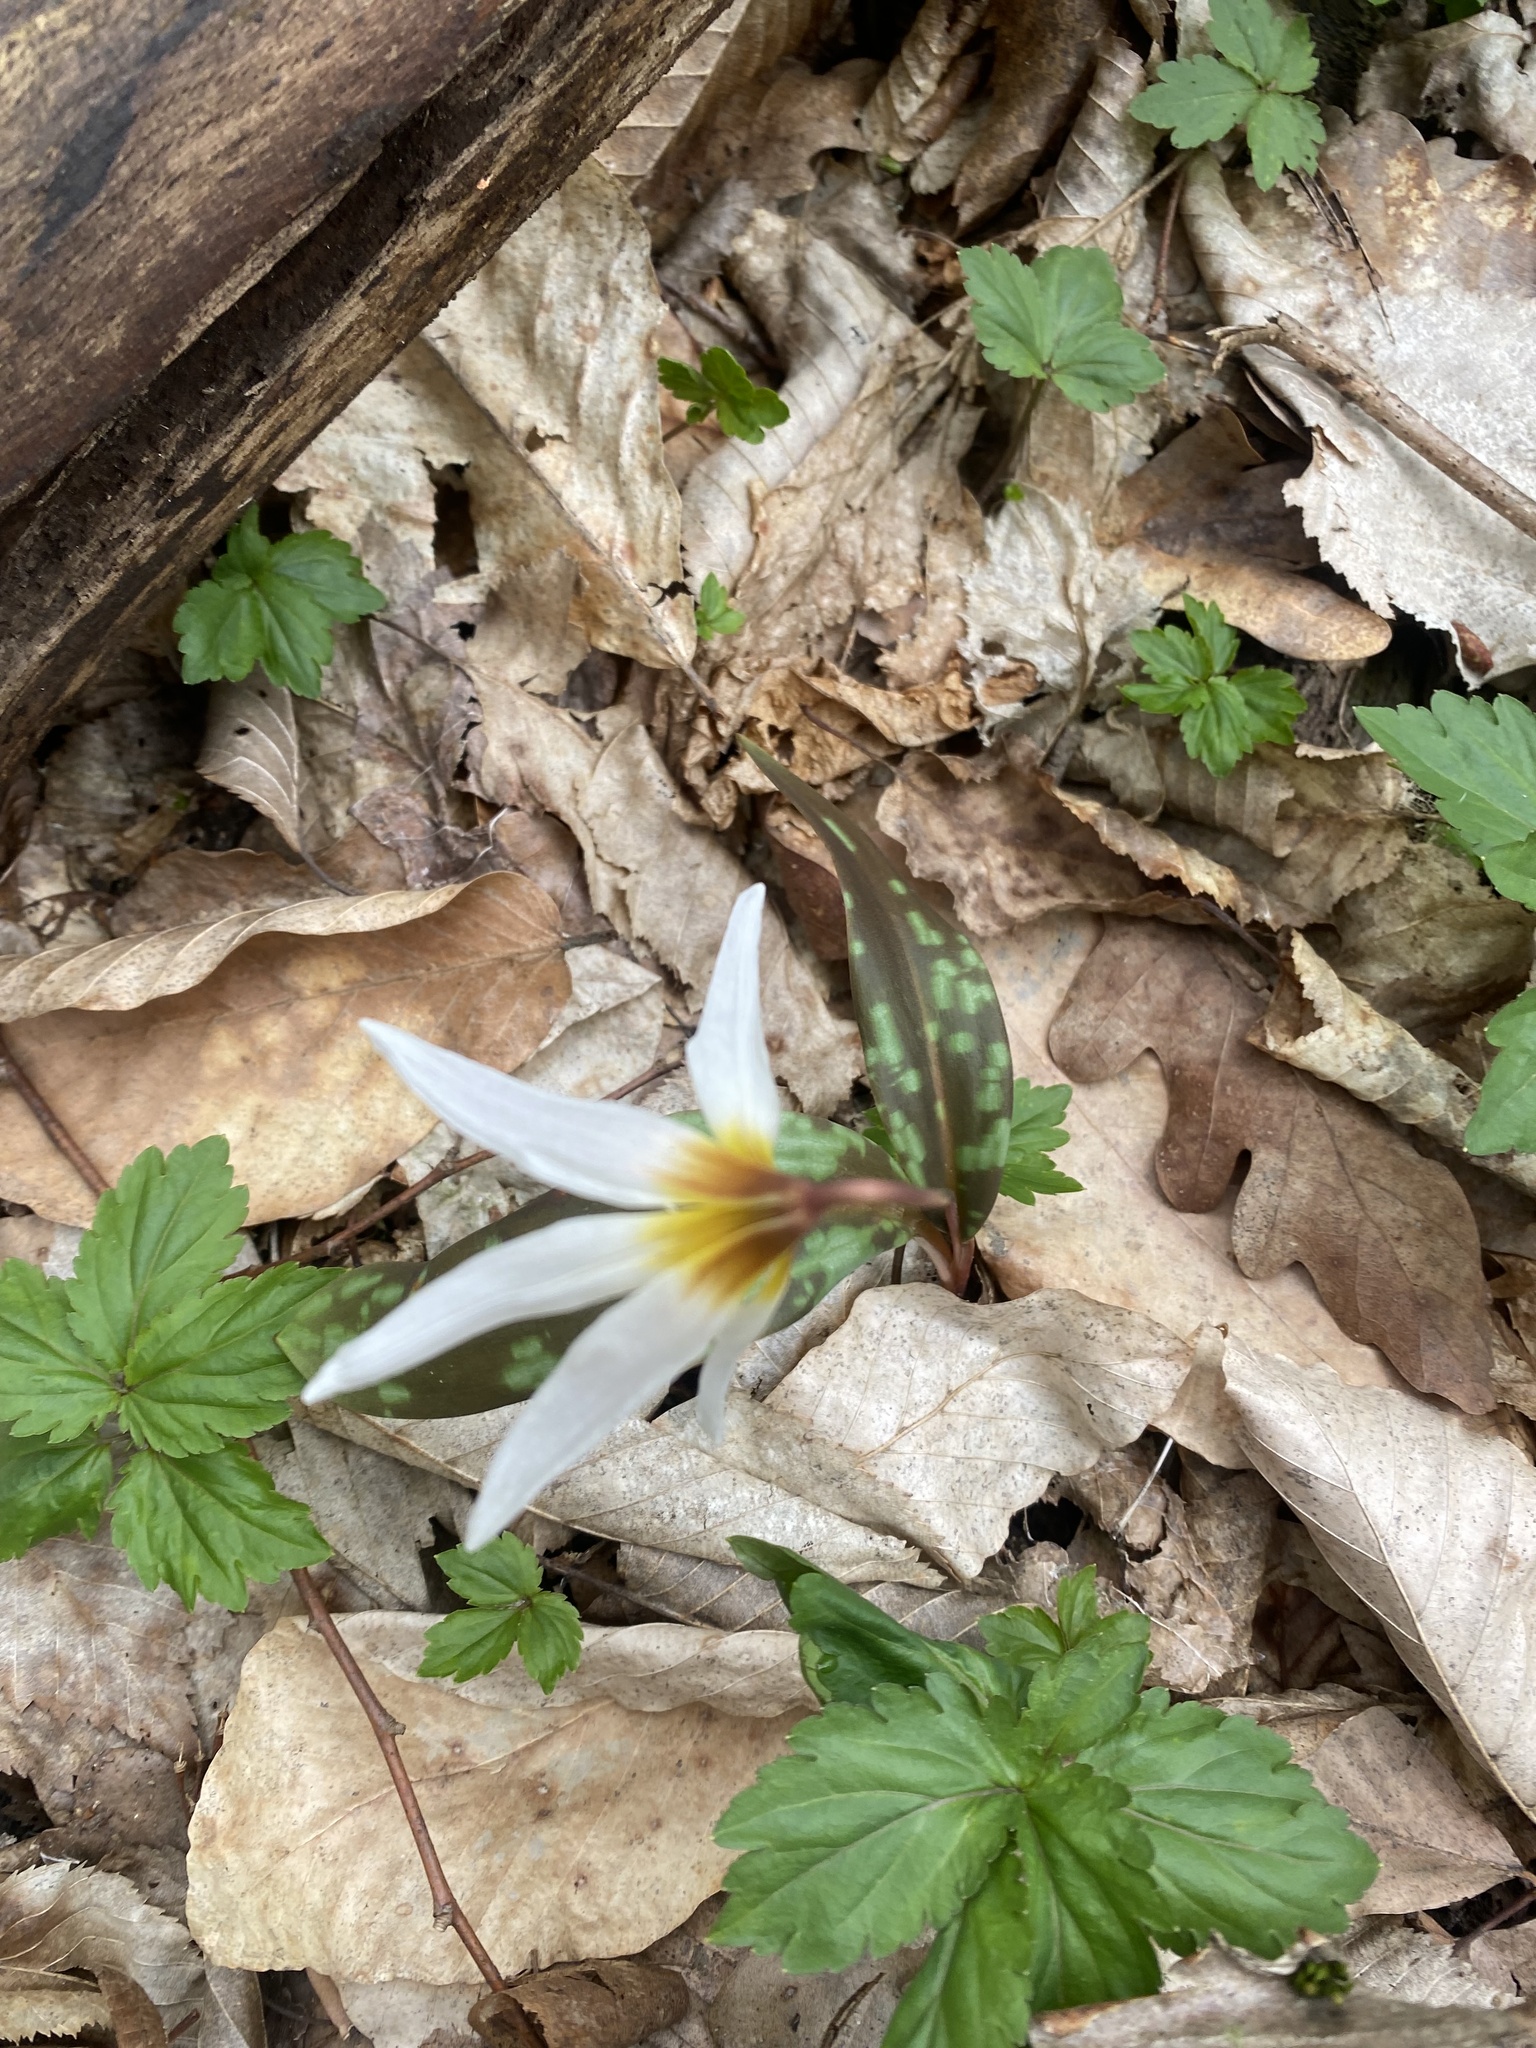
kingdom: Plantae
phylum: Tracheophyta
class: Liliopsida
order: Liliales
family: Liliaceae
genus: Erythronium
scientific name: Erythronium caucasicum
